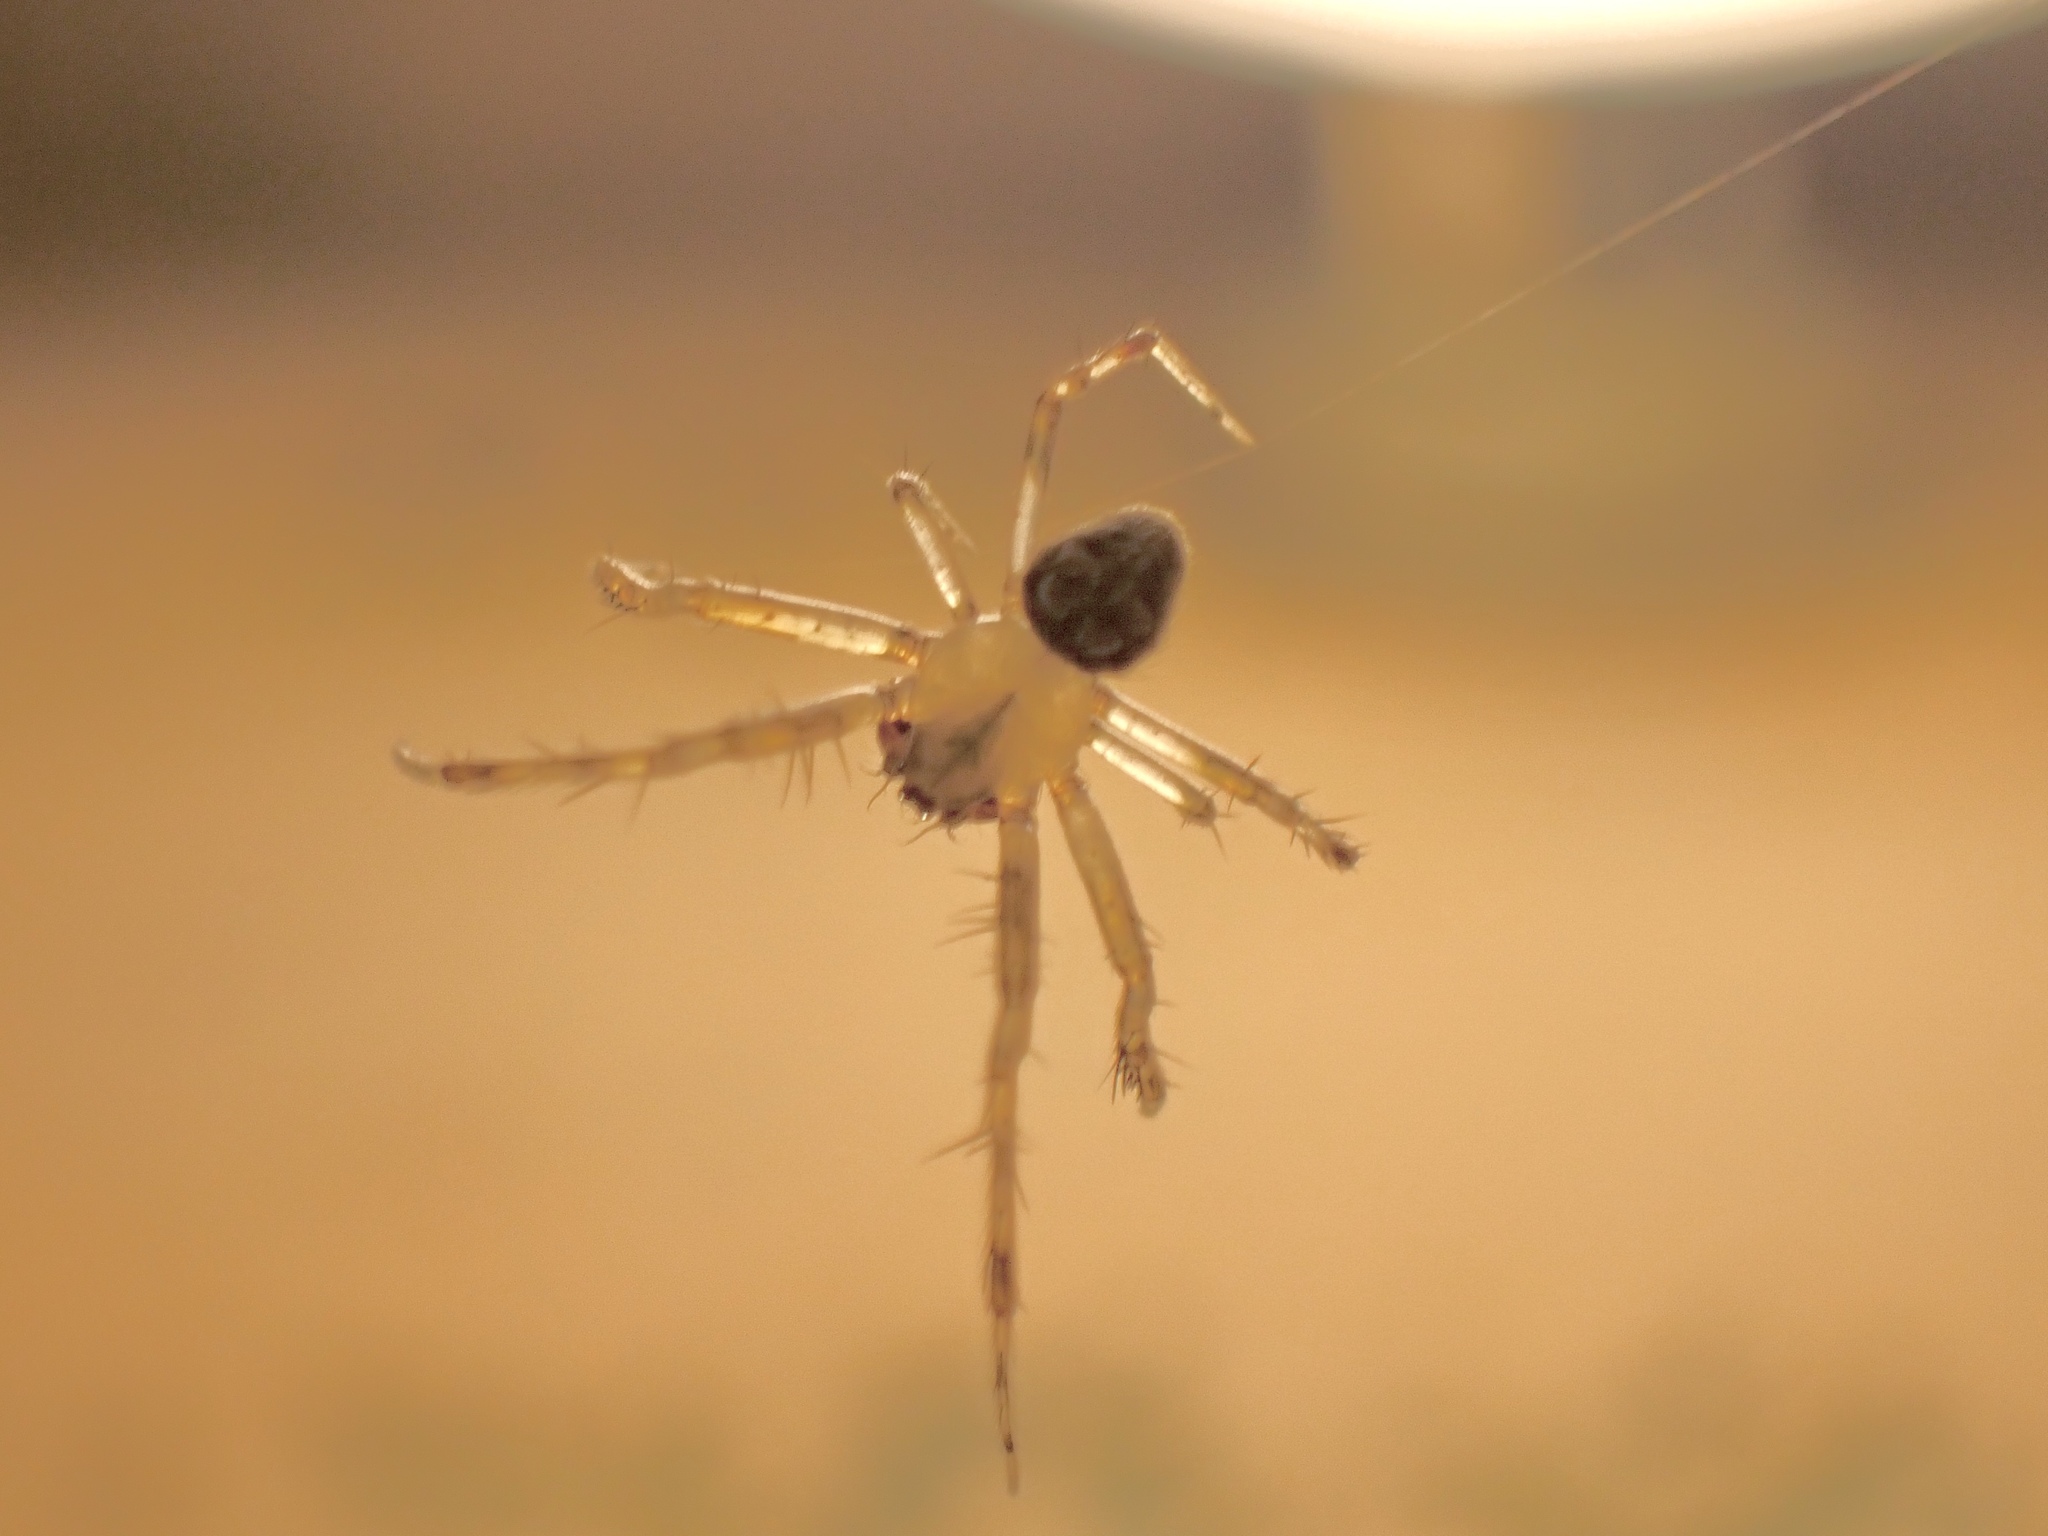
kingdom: Animalia
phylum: Arthropoda
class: Arachnida
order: Araneae
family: Araneidae
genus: Araneus
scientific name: Araneus pegnia
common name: Orb weavers
